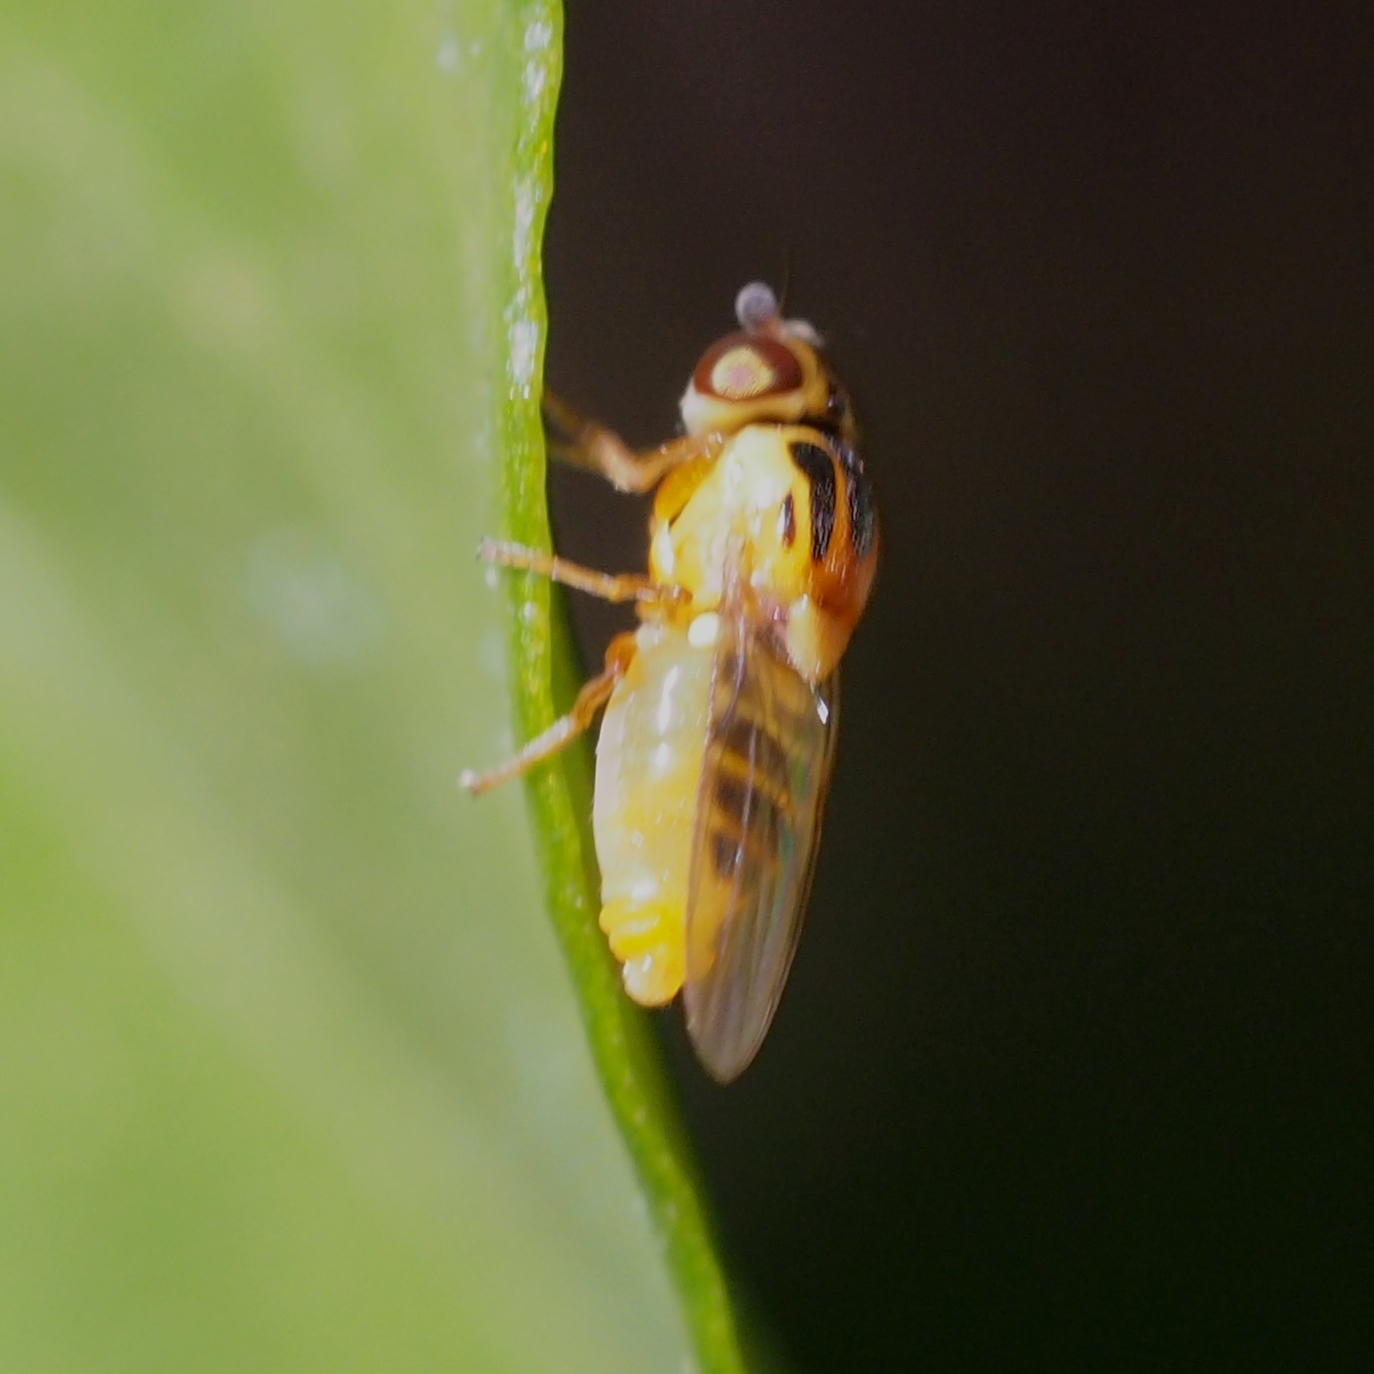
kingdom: Animalia
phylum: Arthropoda
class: Insecta
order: Diptera
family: Chloropidae
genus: Thaumatomyia
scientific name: Thaumatomyia notata
